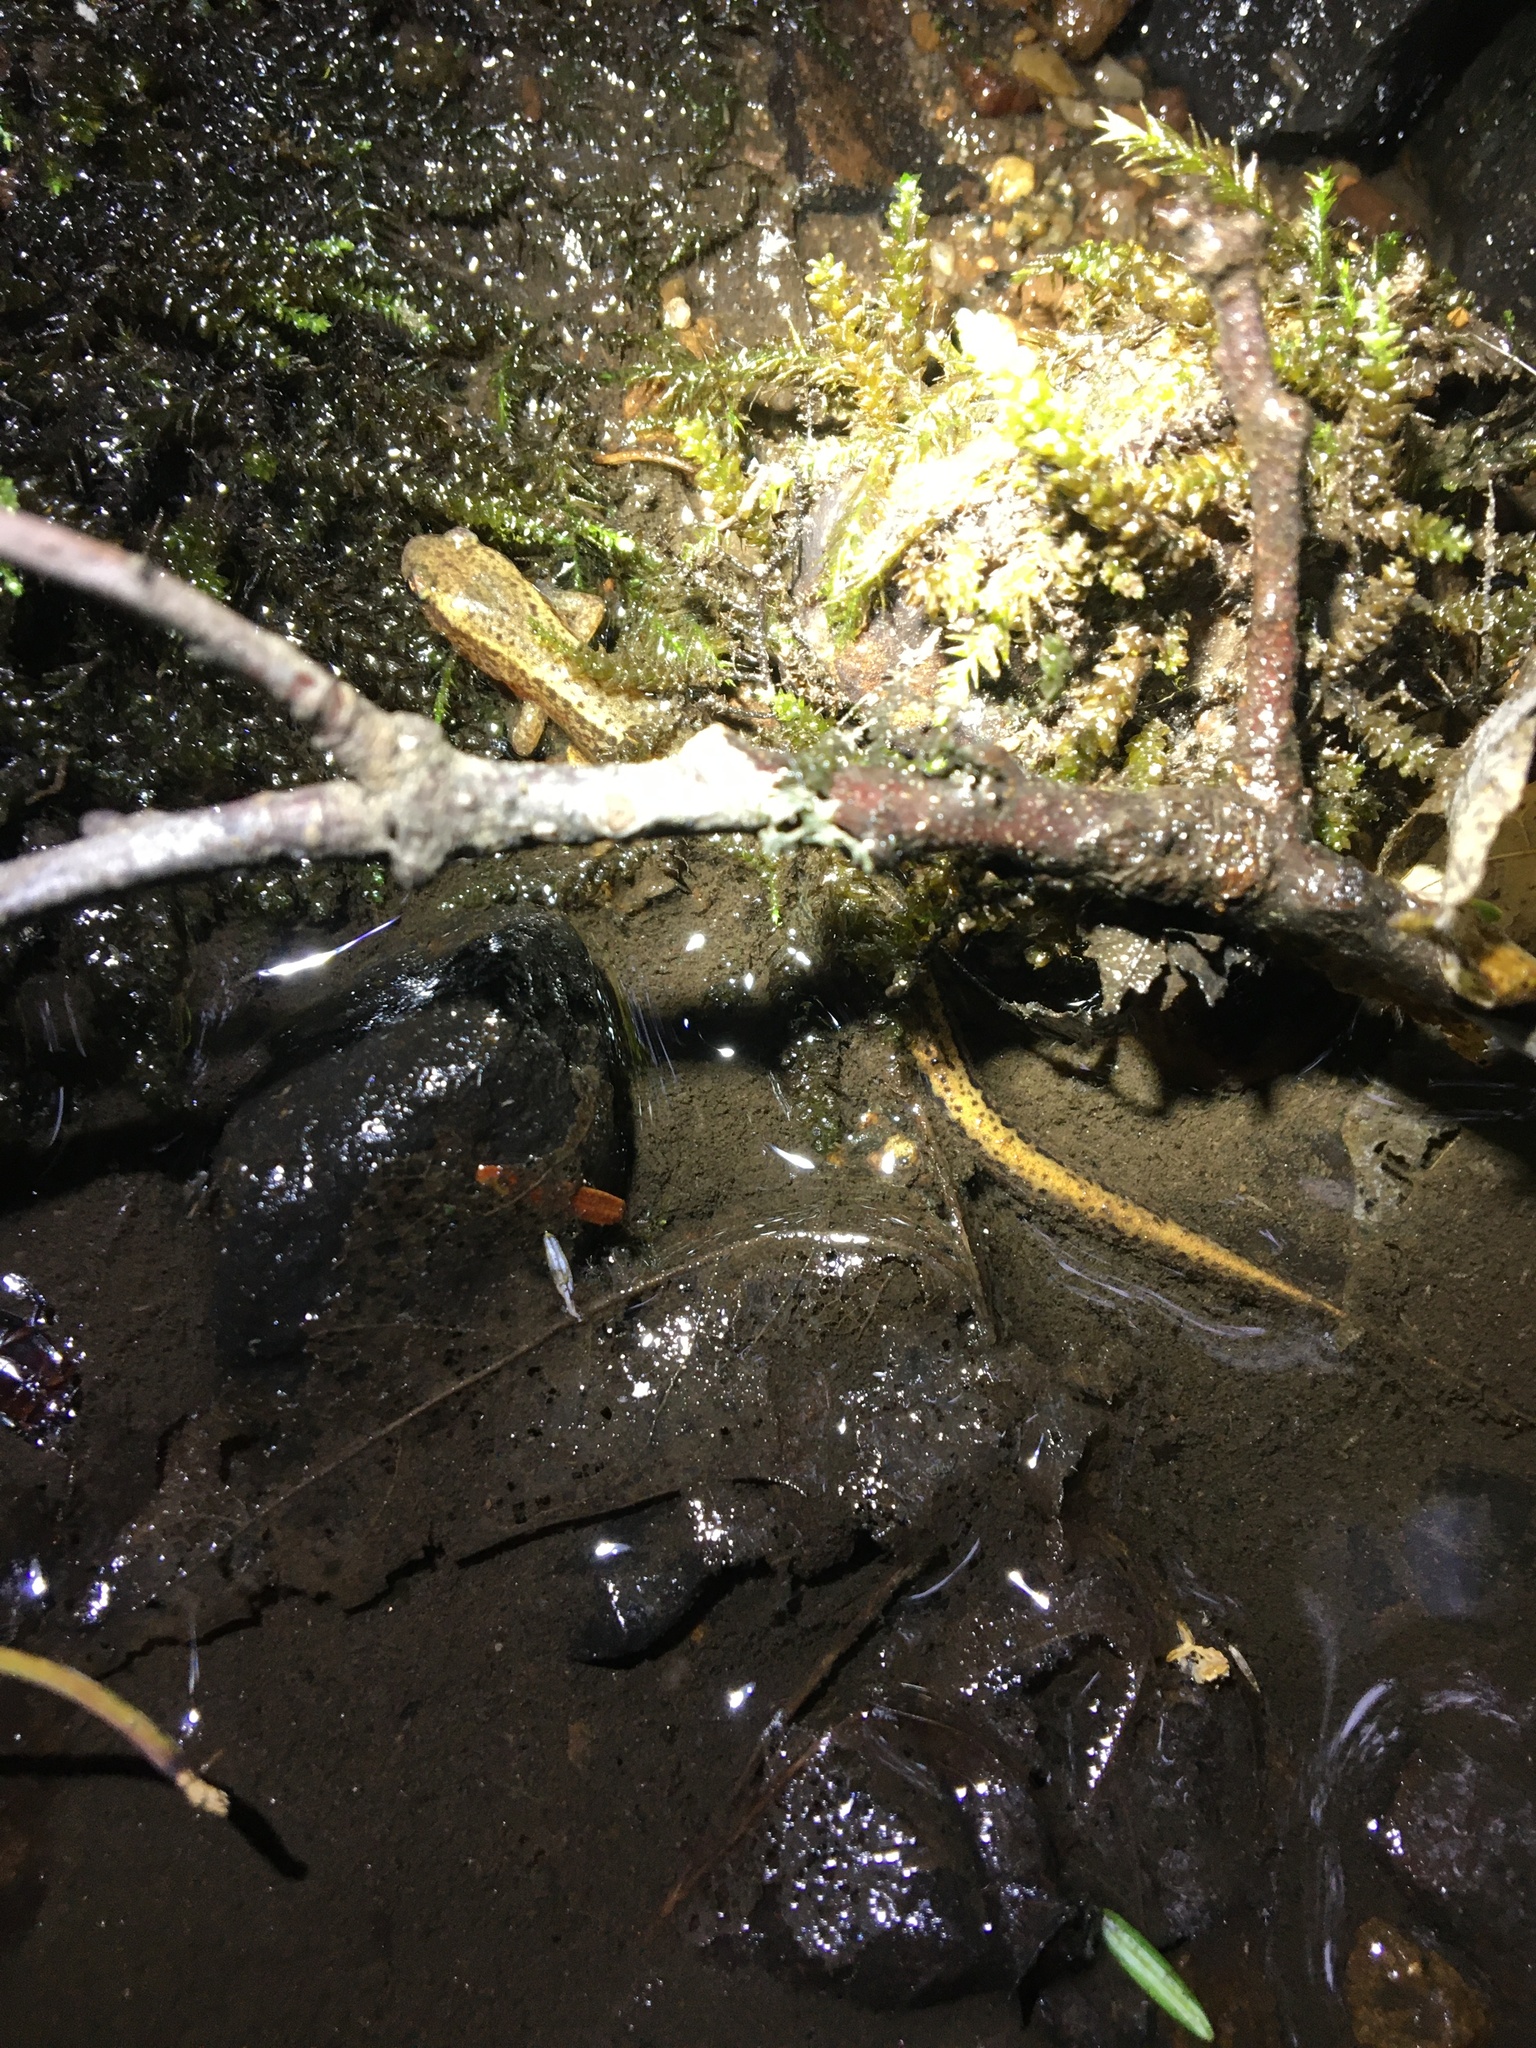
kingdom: Animalia
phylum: Chordata
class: Amphibia
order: Caudata
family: Plethodontidae
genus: Eurycea
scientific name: Eurycea bislineata
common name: Northern two-lined salamander
